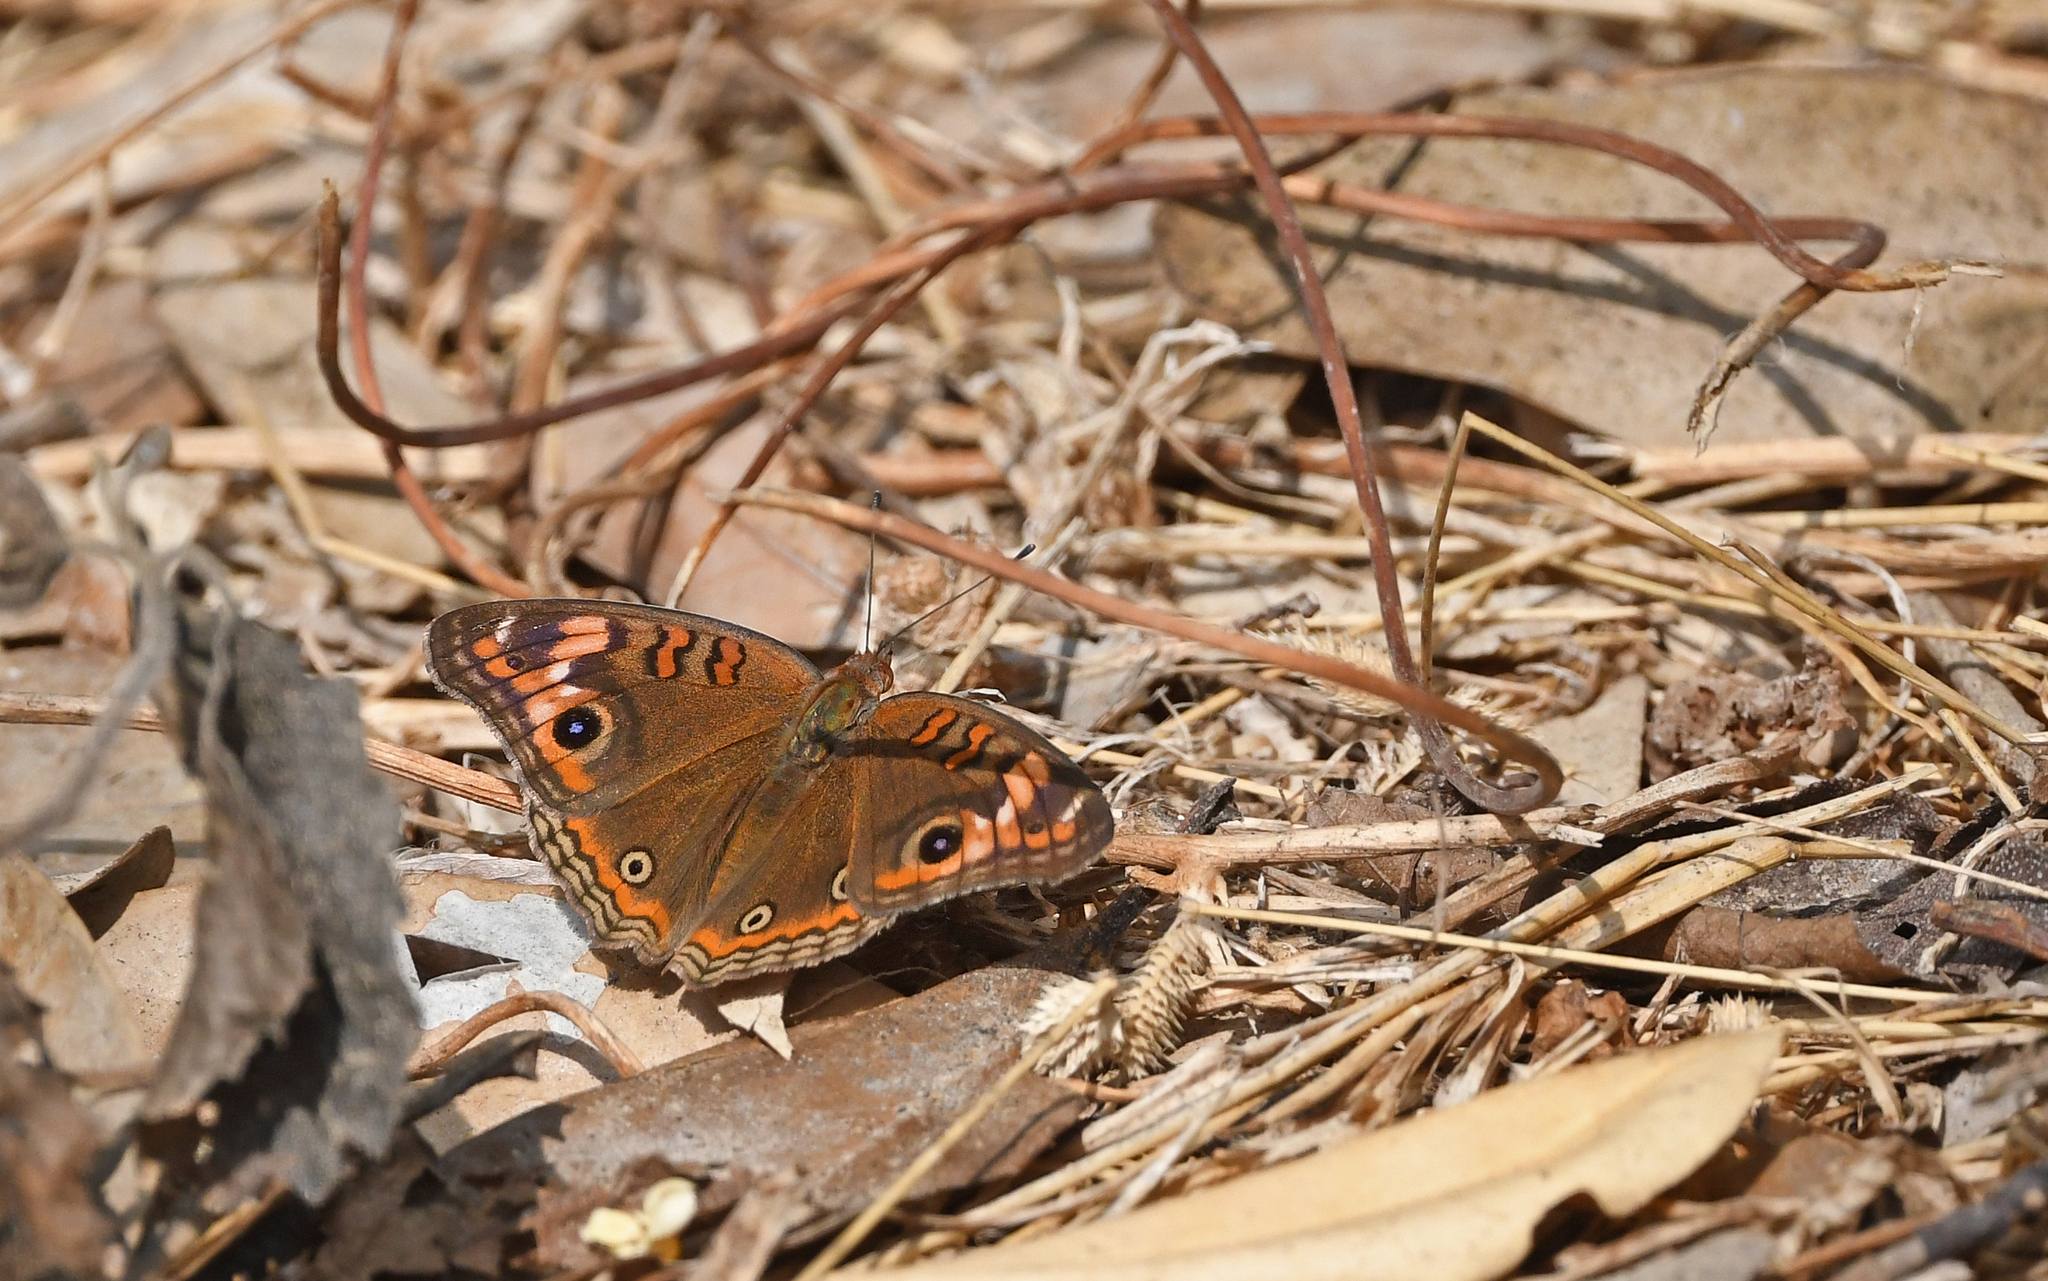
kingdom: Animalia
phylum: Arthropoda
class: Insecta
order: Lepidoptera
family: Nymphalidae
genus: Junonia
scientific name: Junonia neildi
